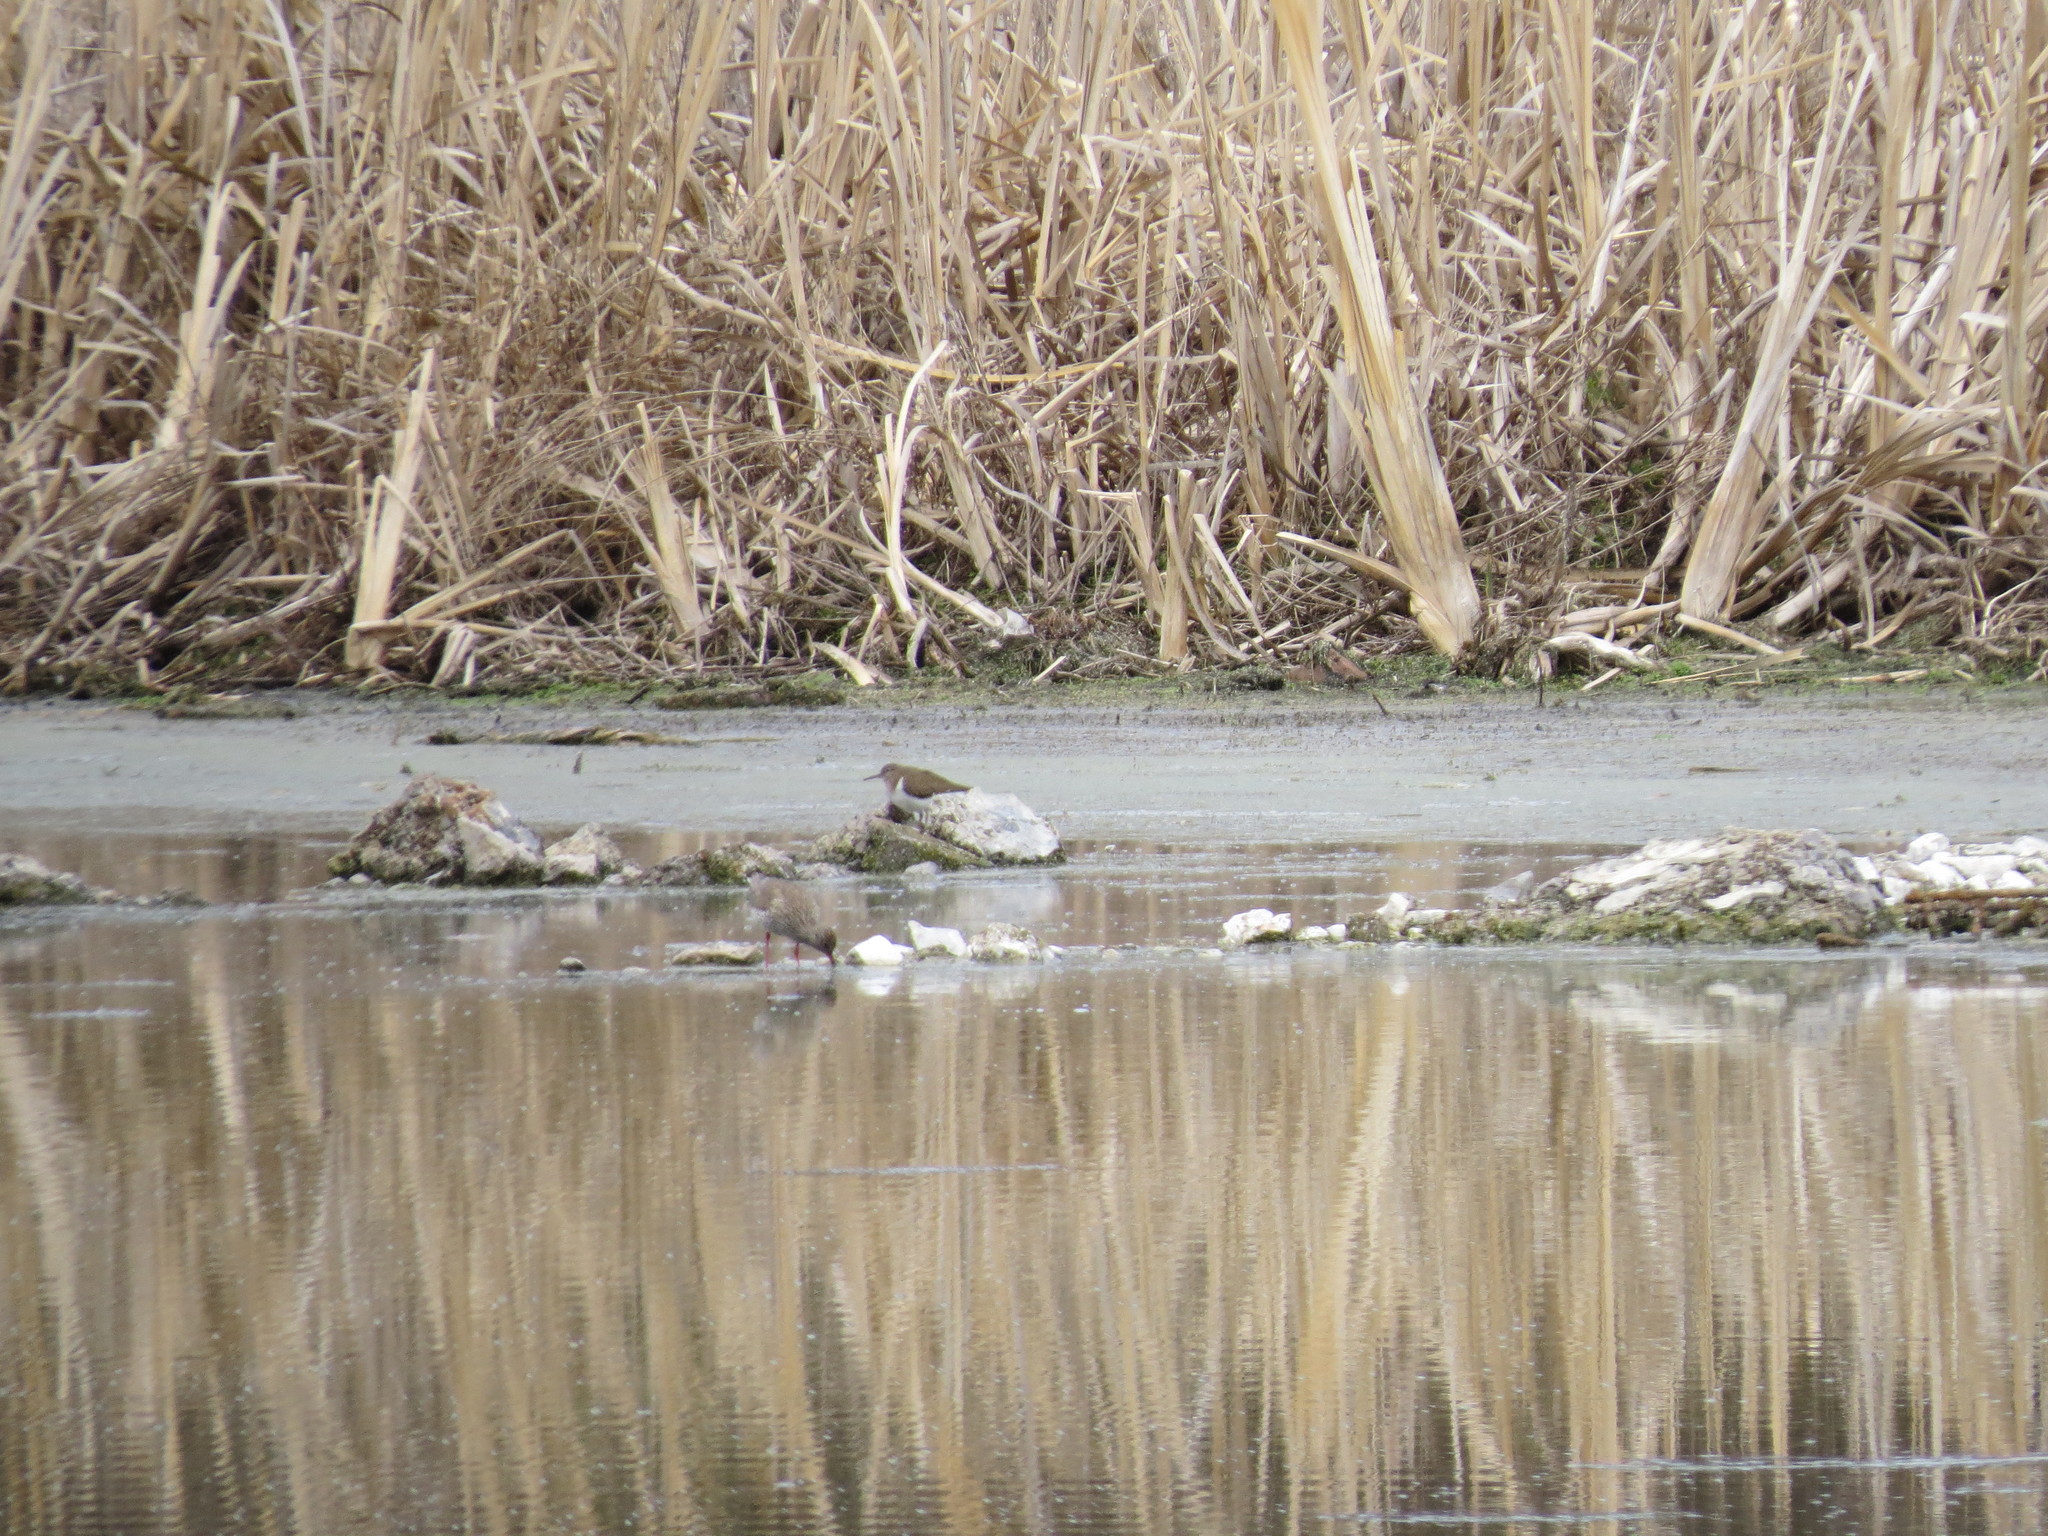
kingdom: Animalia
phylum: Chordata
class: Aves
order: Charadriiformes
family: Scolopacidae
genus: Actitis
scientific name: Actitis hypoleucos
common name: Common sandpiper
